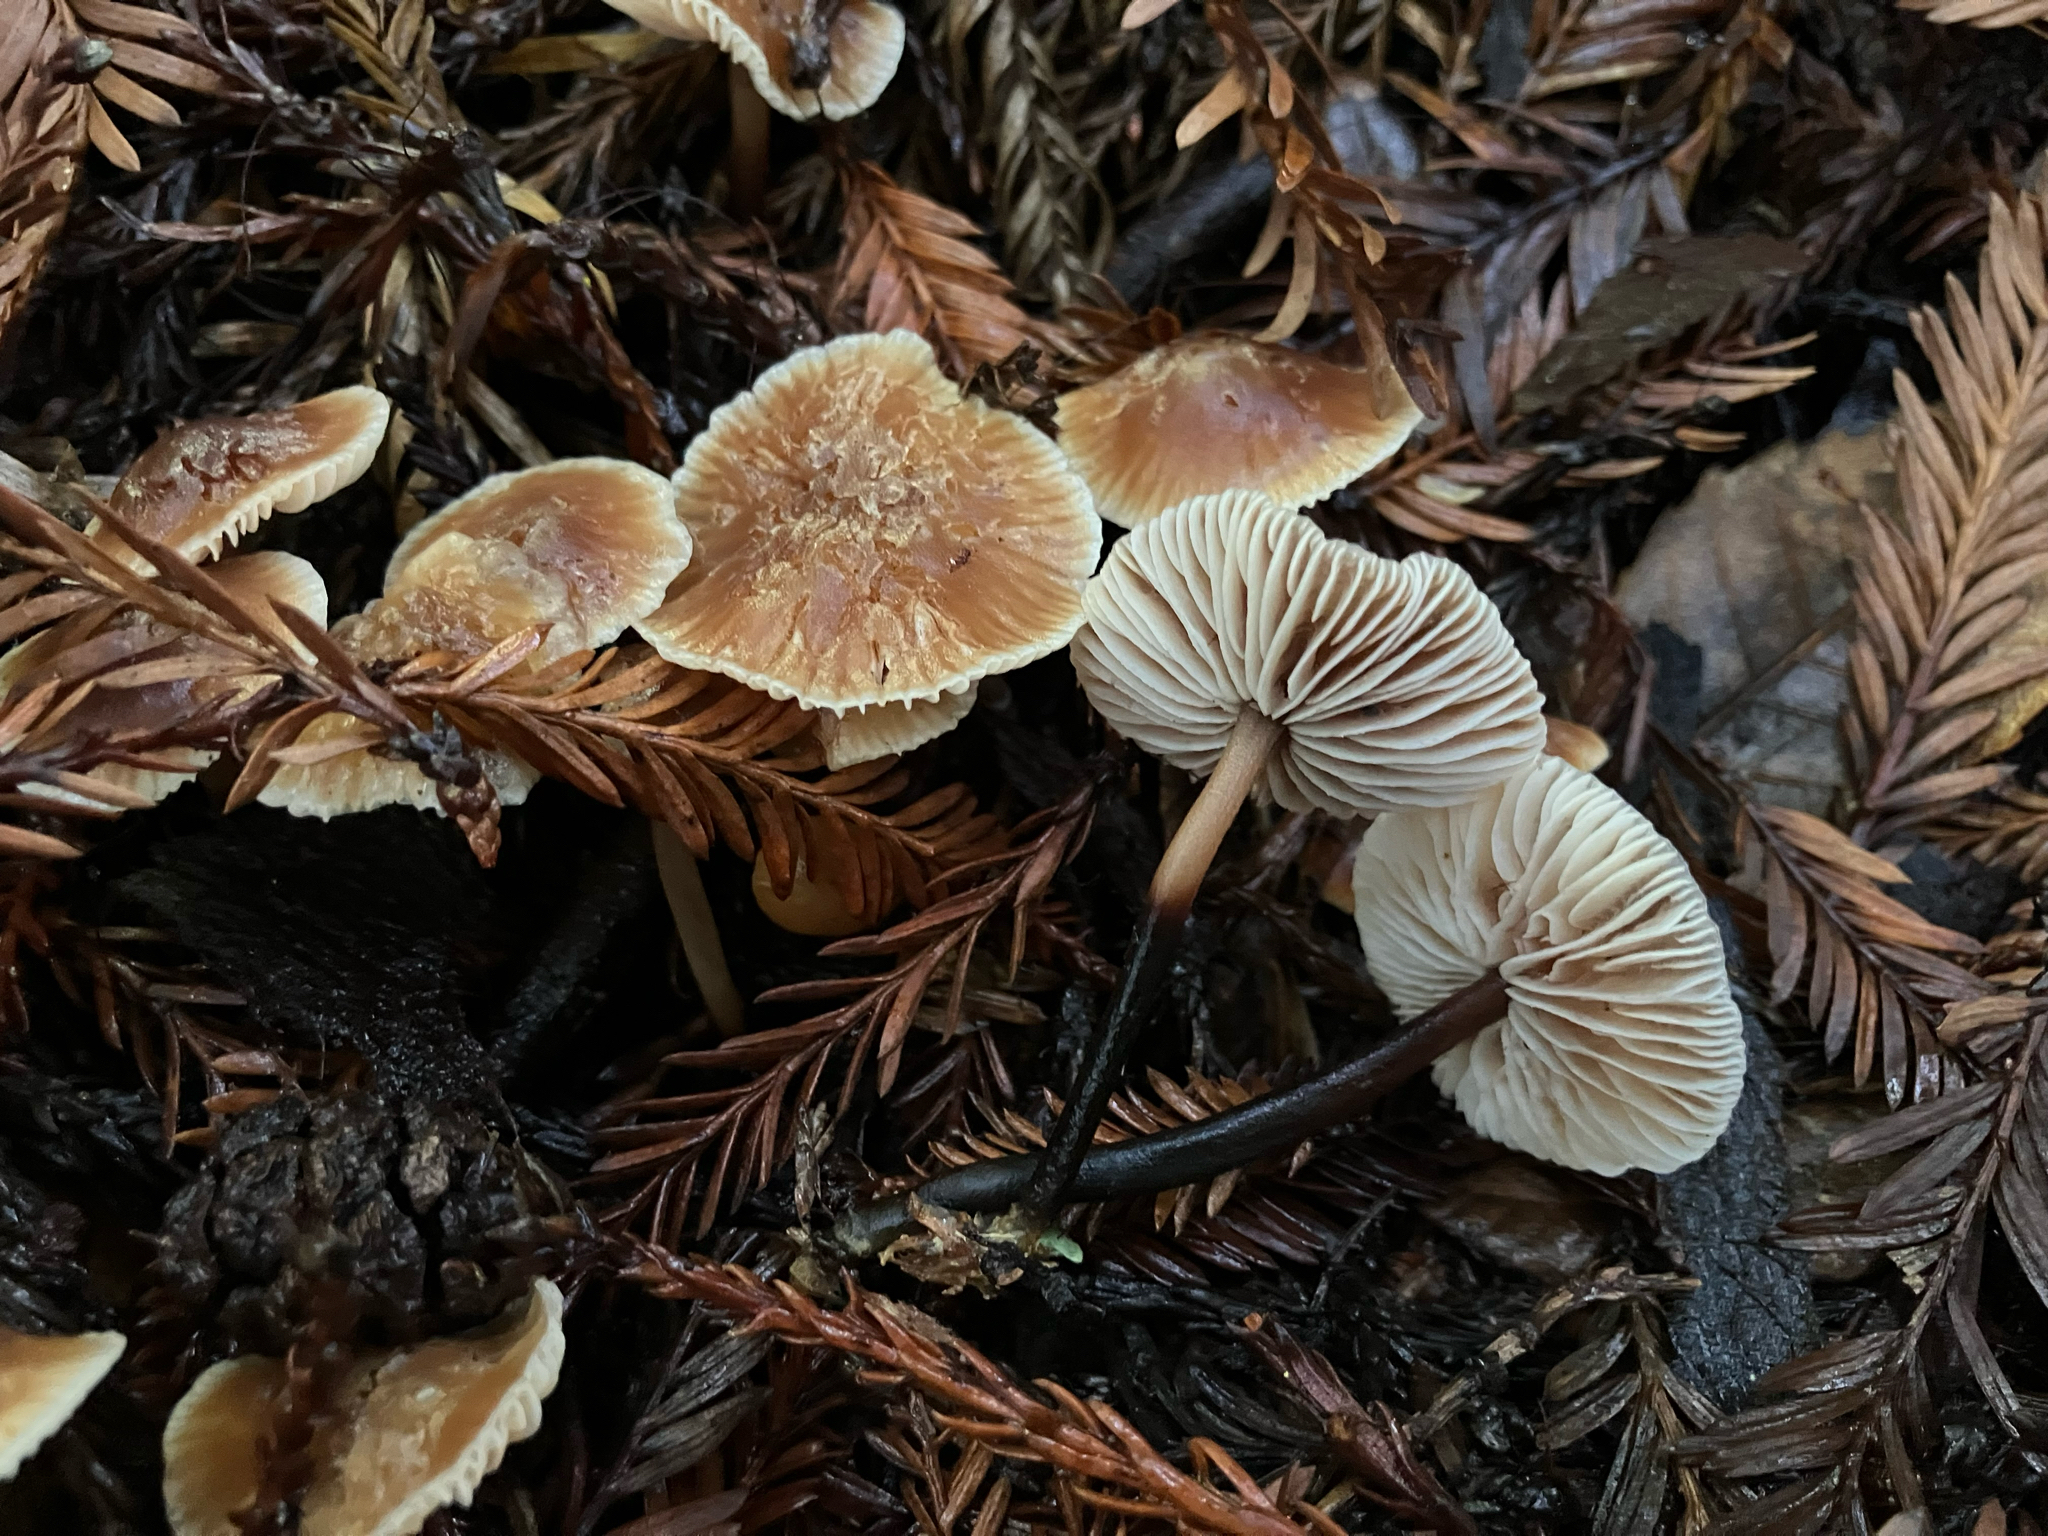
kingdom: Fungi
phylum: Basidiomycota
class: Agaricomycetes
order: Agaricales
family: Omphalotaceae
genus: Gymnopus
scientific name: Gymnopus brassicolens
